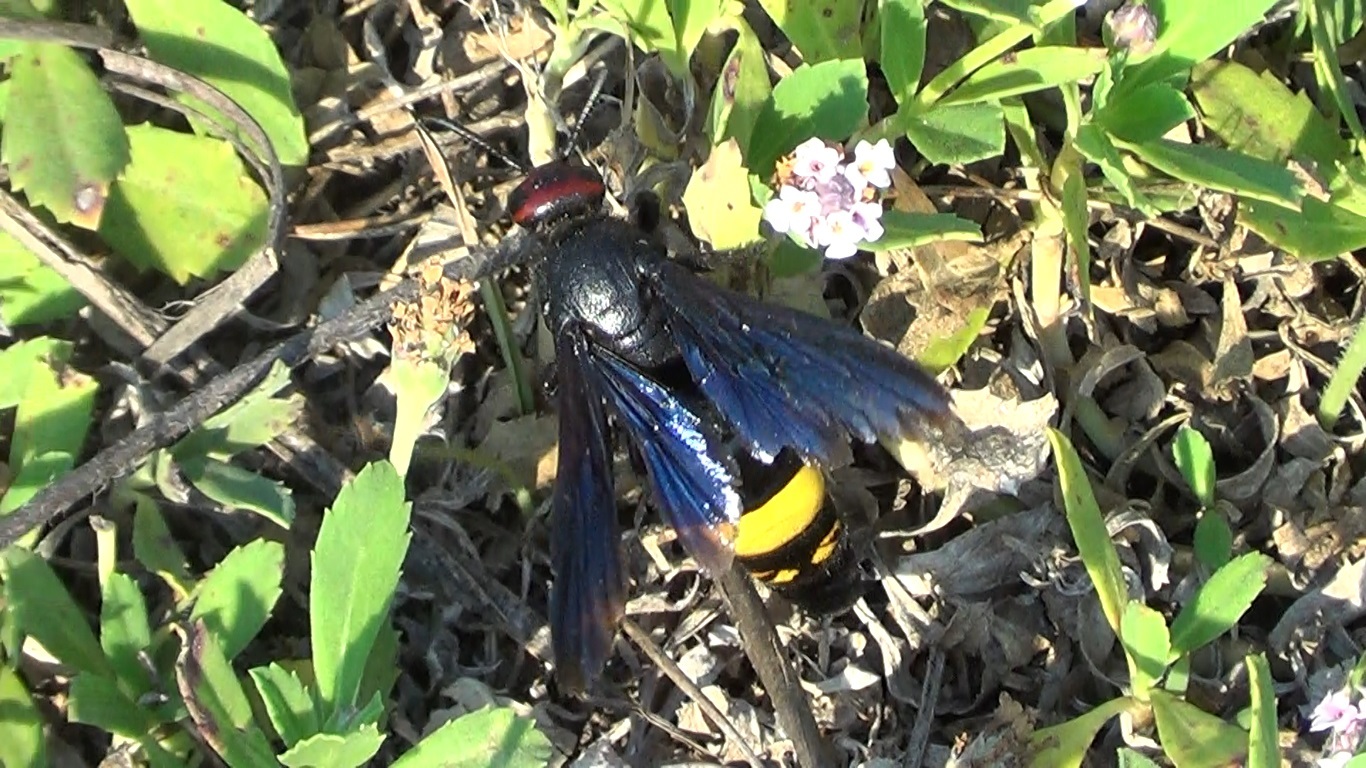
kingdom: Animalia
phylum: Arthropoda
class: Insecta
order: Hymenoptera
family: Scoliidae
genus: Scolia
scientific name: Scolia erythrocephala
